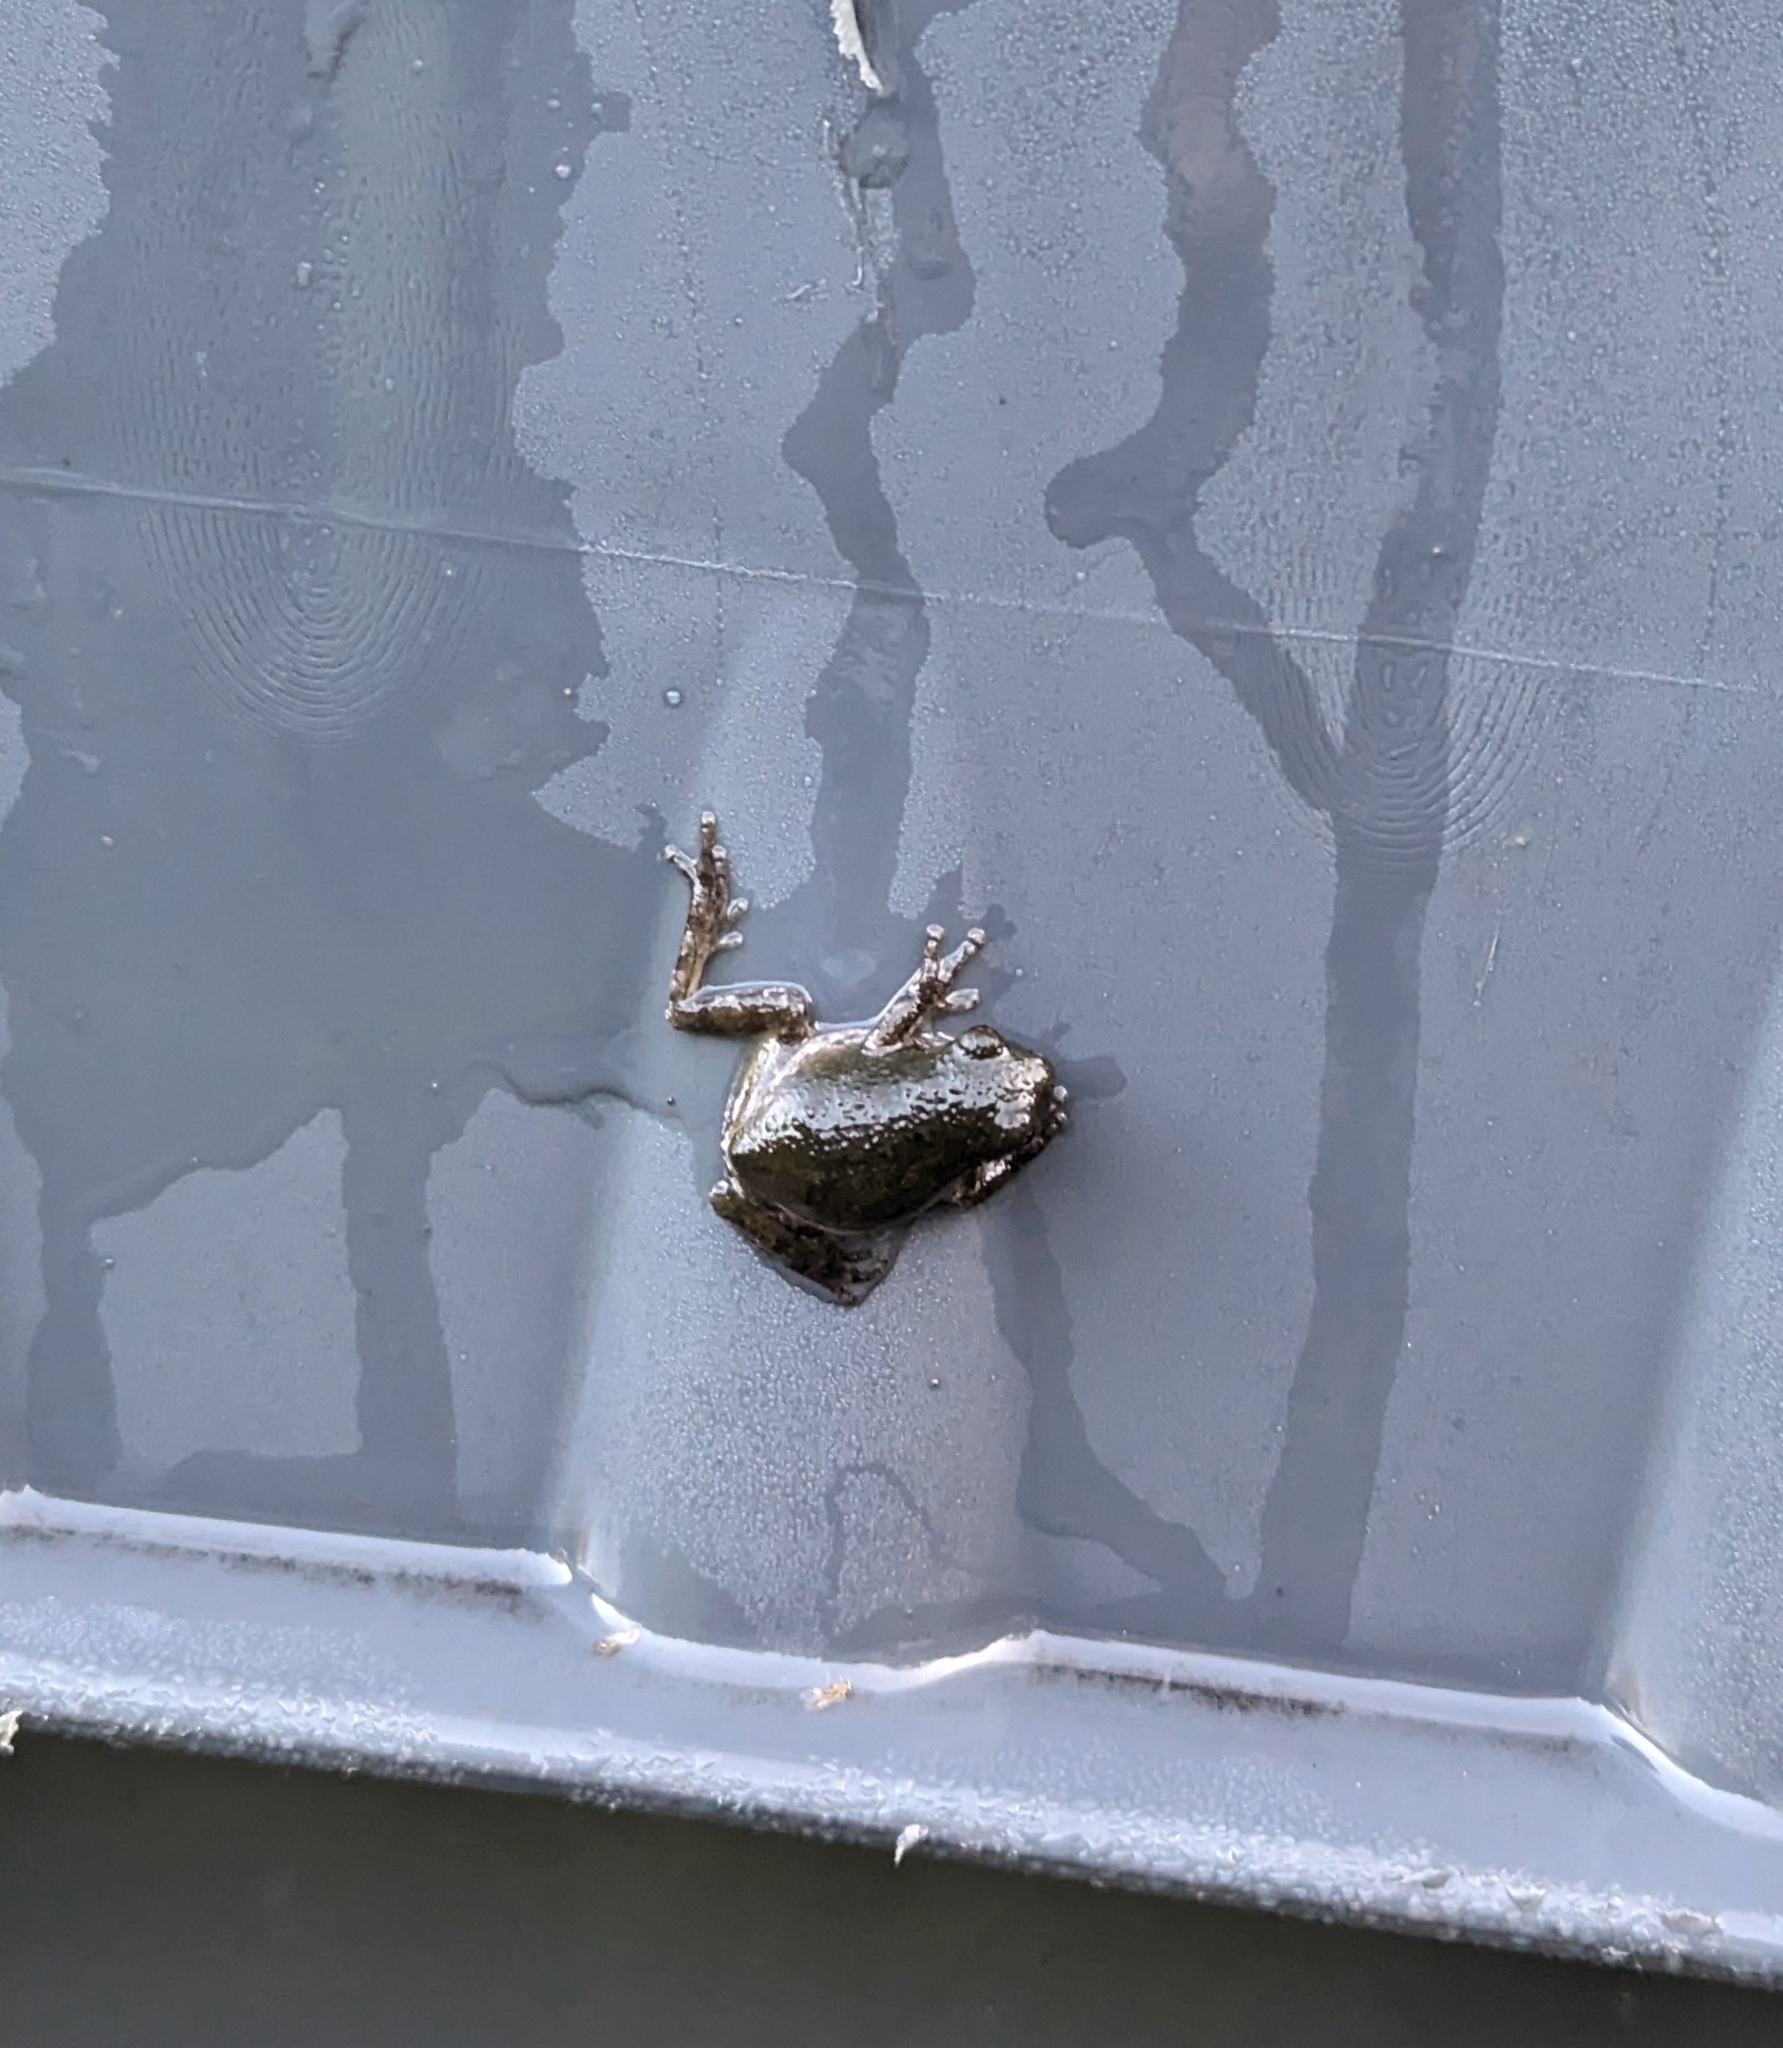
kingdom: Animalia
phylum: Chordata
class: Amphibia
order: Anura
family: Hylidae
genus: Dryophytes
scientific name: Dryophytes versicolor
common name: Gray treefrog
